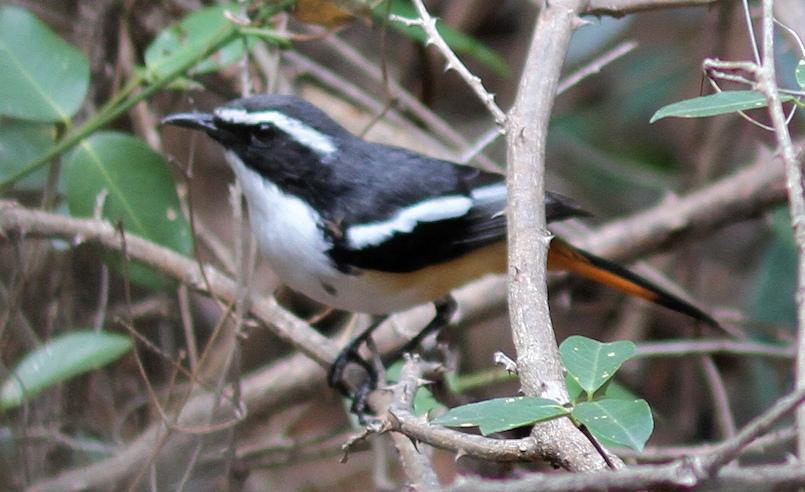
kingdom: Animalia
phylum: Chordata
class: Aves
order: Passeriformes
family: Muscicapidae
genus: Cossypha
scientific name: Cossypha humeralis
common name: White-throated robin-chat
